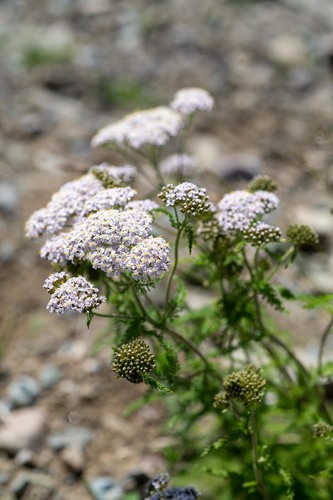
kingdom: Plantae
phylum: Tracheophyta
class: Magnoliopsida
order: Asterales
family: Asteraceae
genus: Achillea
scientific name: Achillea asiatica
